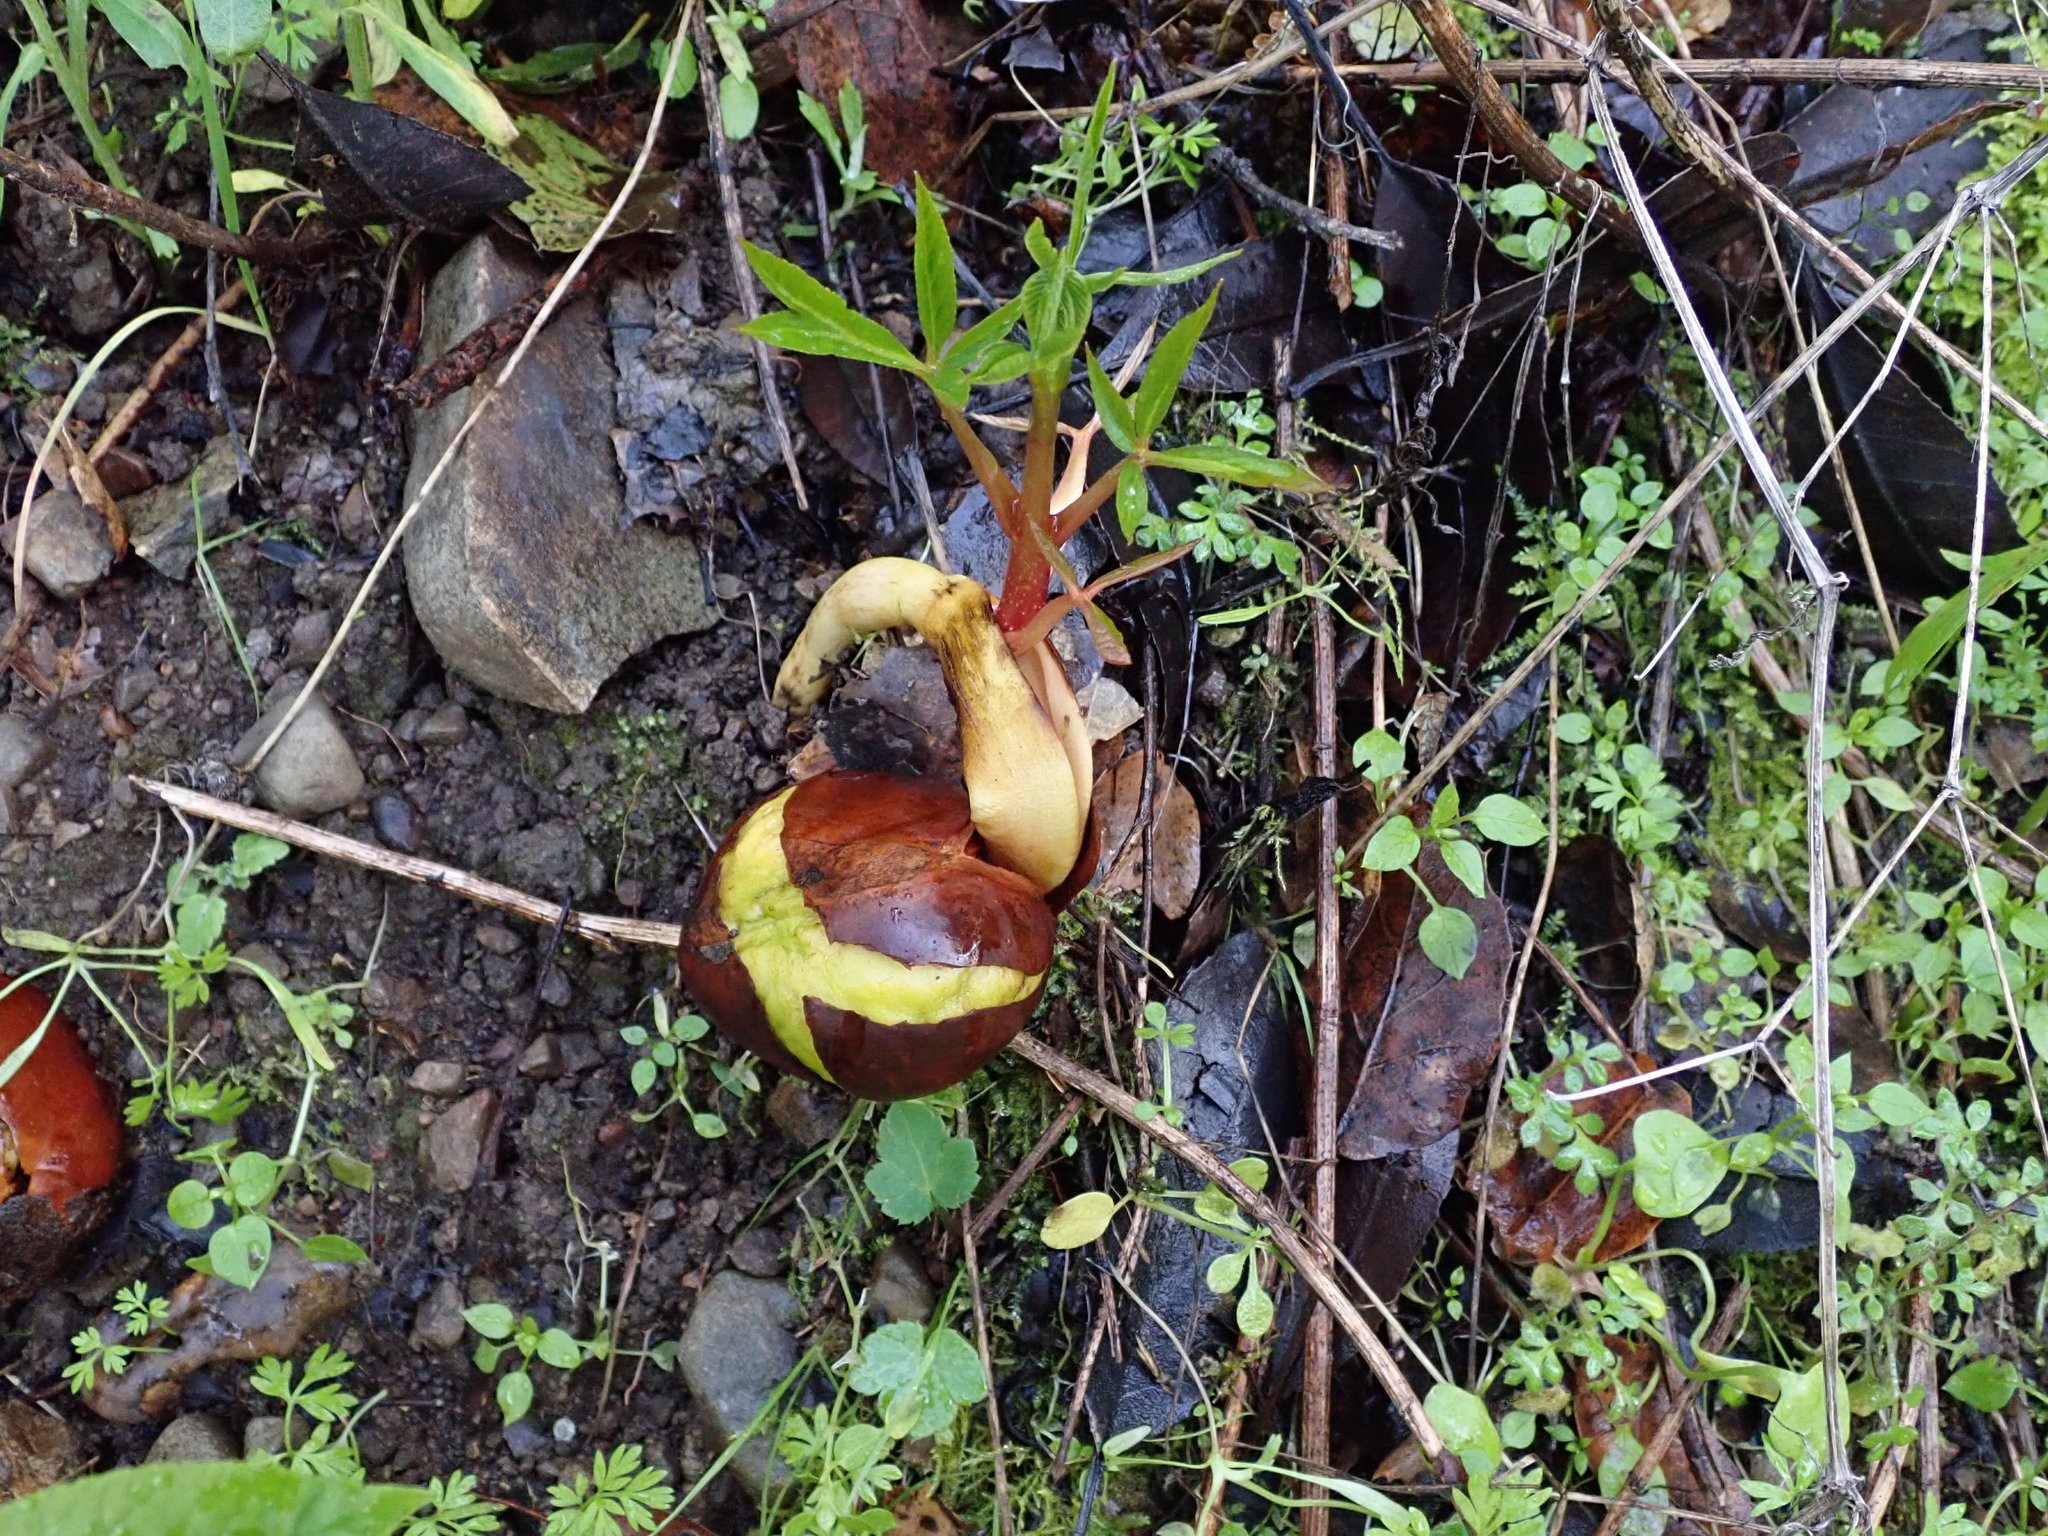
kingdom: Plantae
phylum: Tracheophyta
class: Magnoliopsida
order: Sapindales
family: Sapindaceae
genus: Aesculus
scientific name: Aesculus californica
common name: California buckeye
